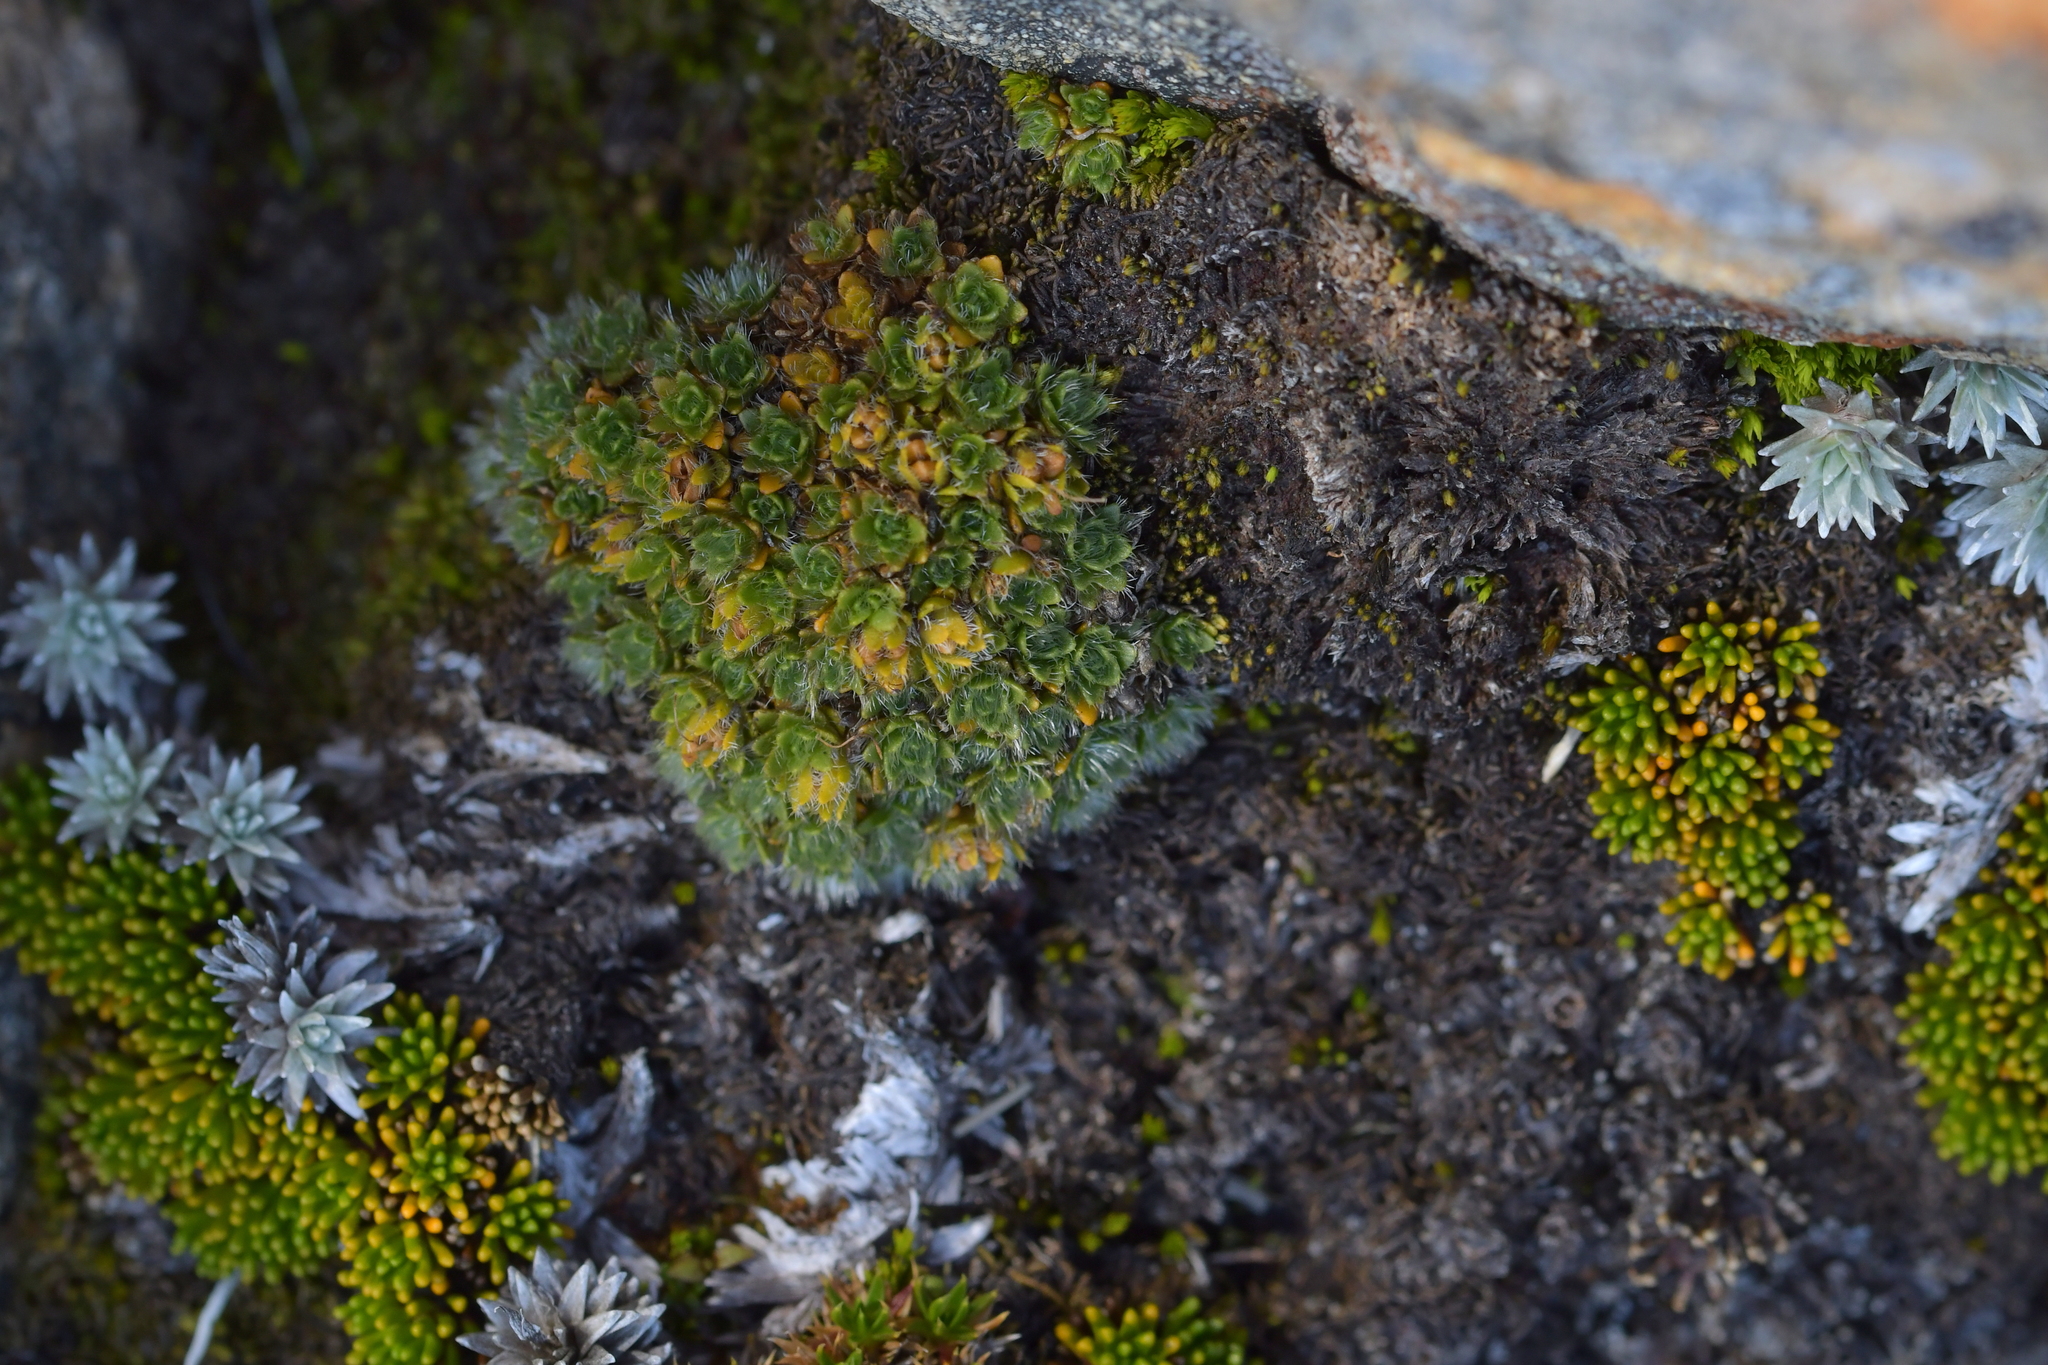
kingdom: Plantae
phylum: Tracheophyta
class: Magnoliopsida
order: Lamiales
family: Plantaginaceae
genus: Veronica
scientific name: Veronica pulvinaris
